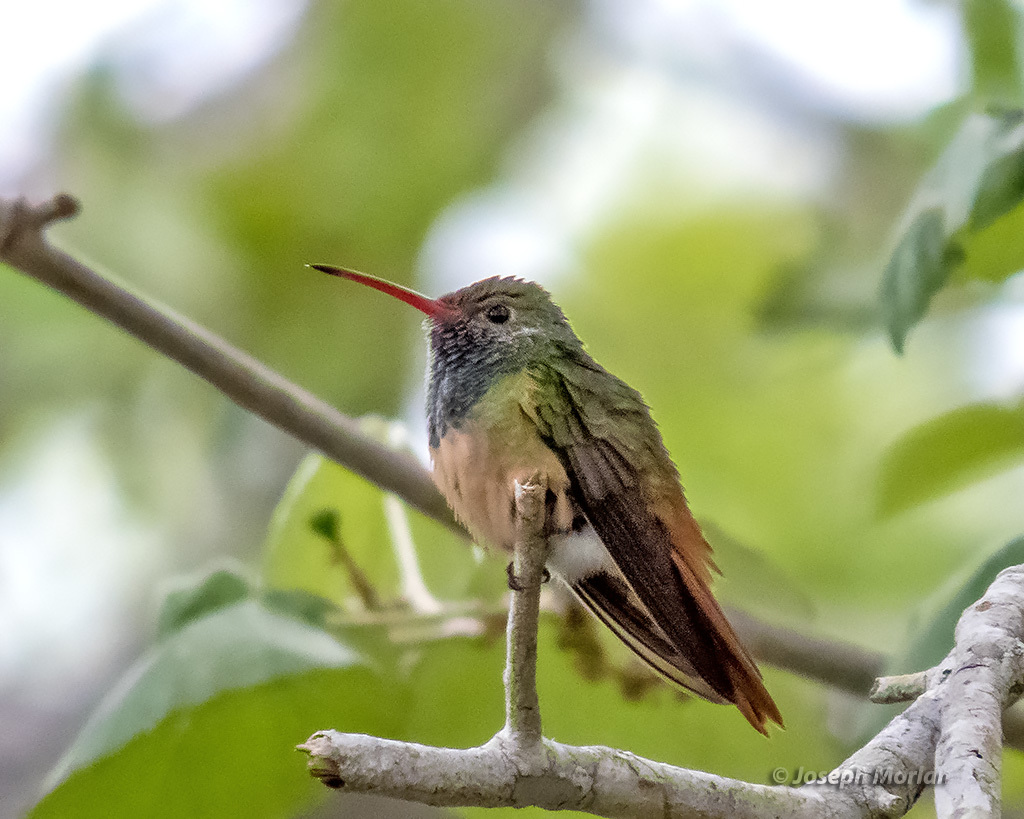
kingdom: Animalia
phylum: Chordata
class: Aves
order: Apodiformes
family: Trochilidae
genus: Amazilia
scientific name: Amazilia yucatanensis
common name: Buff-bellied hummingbird
